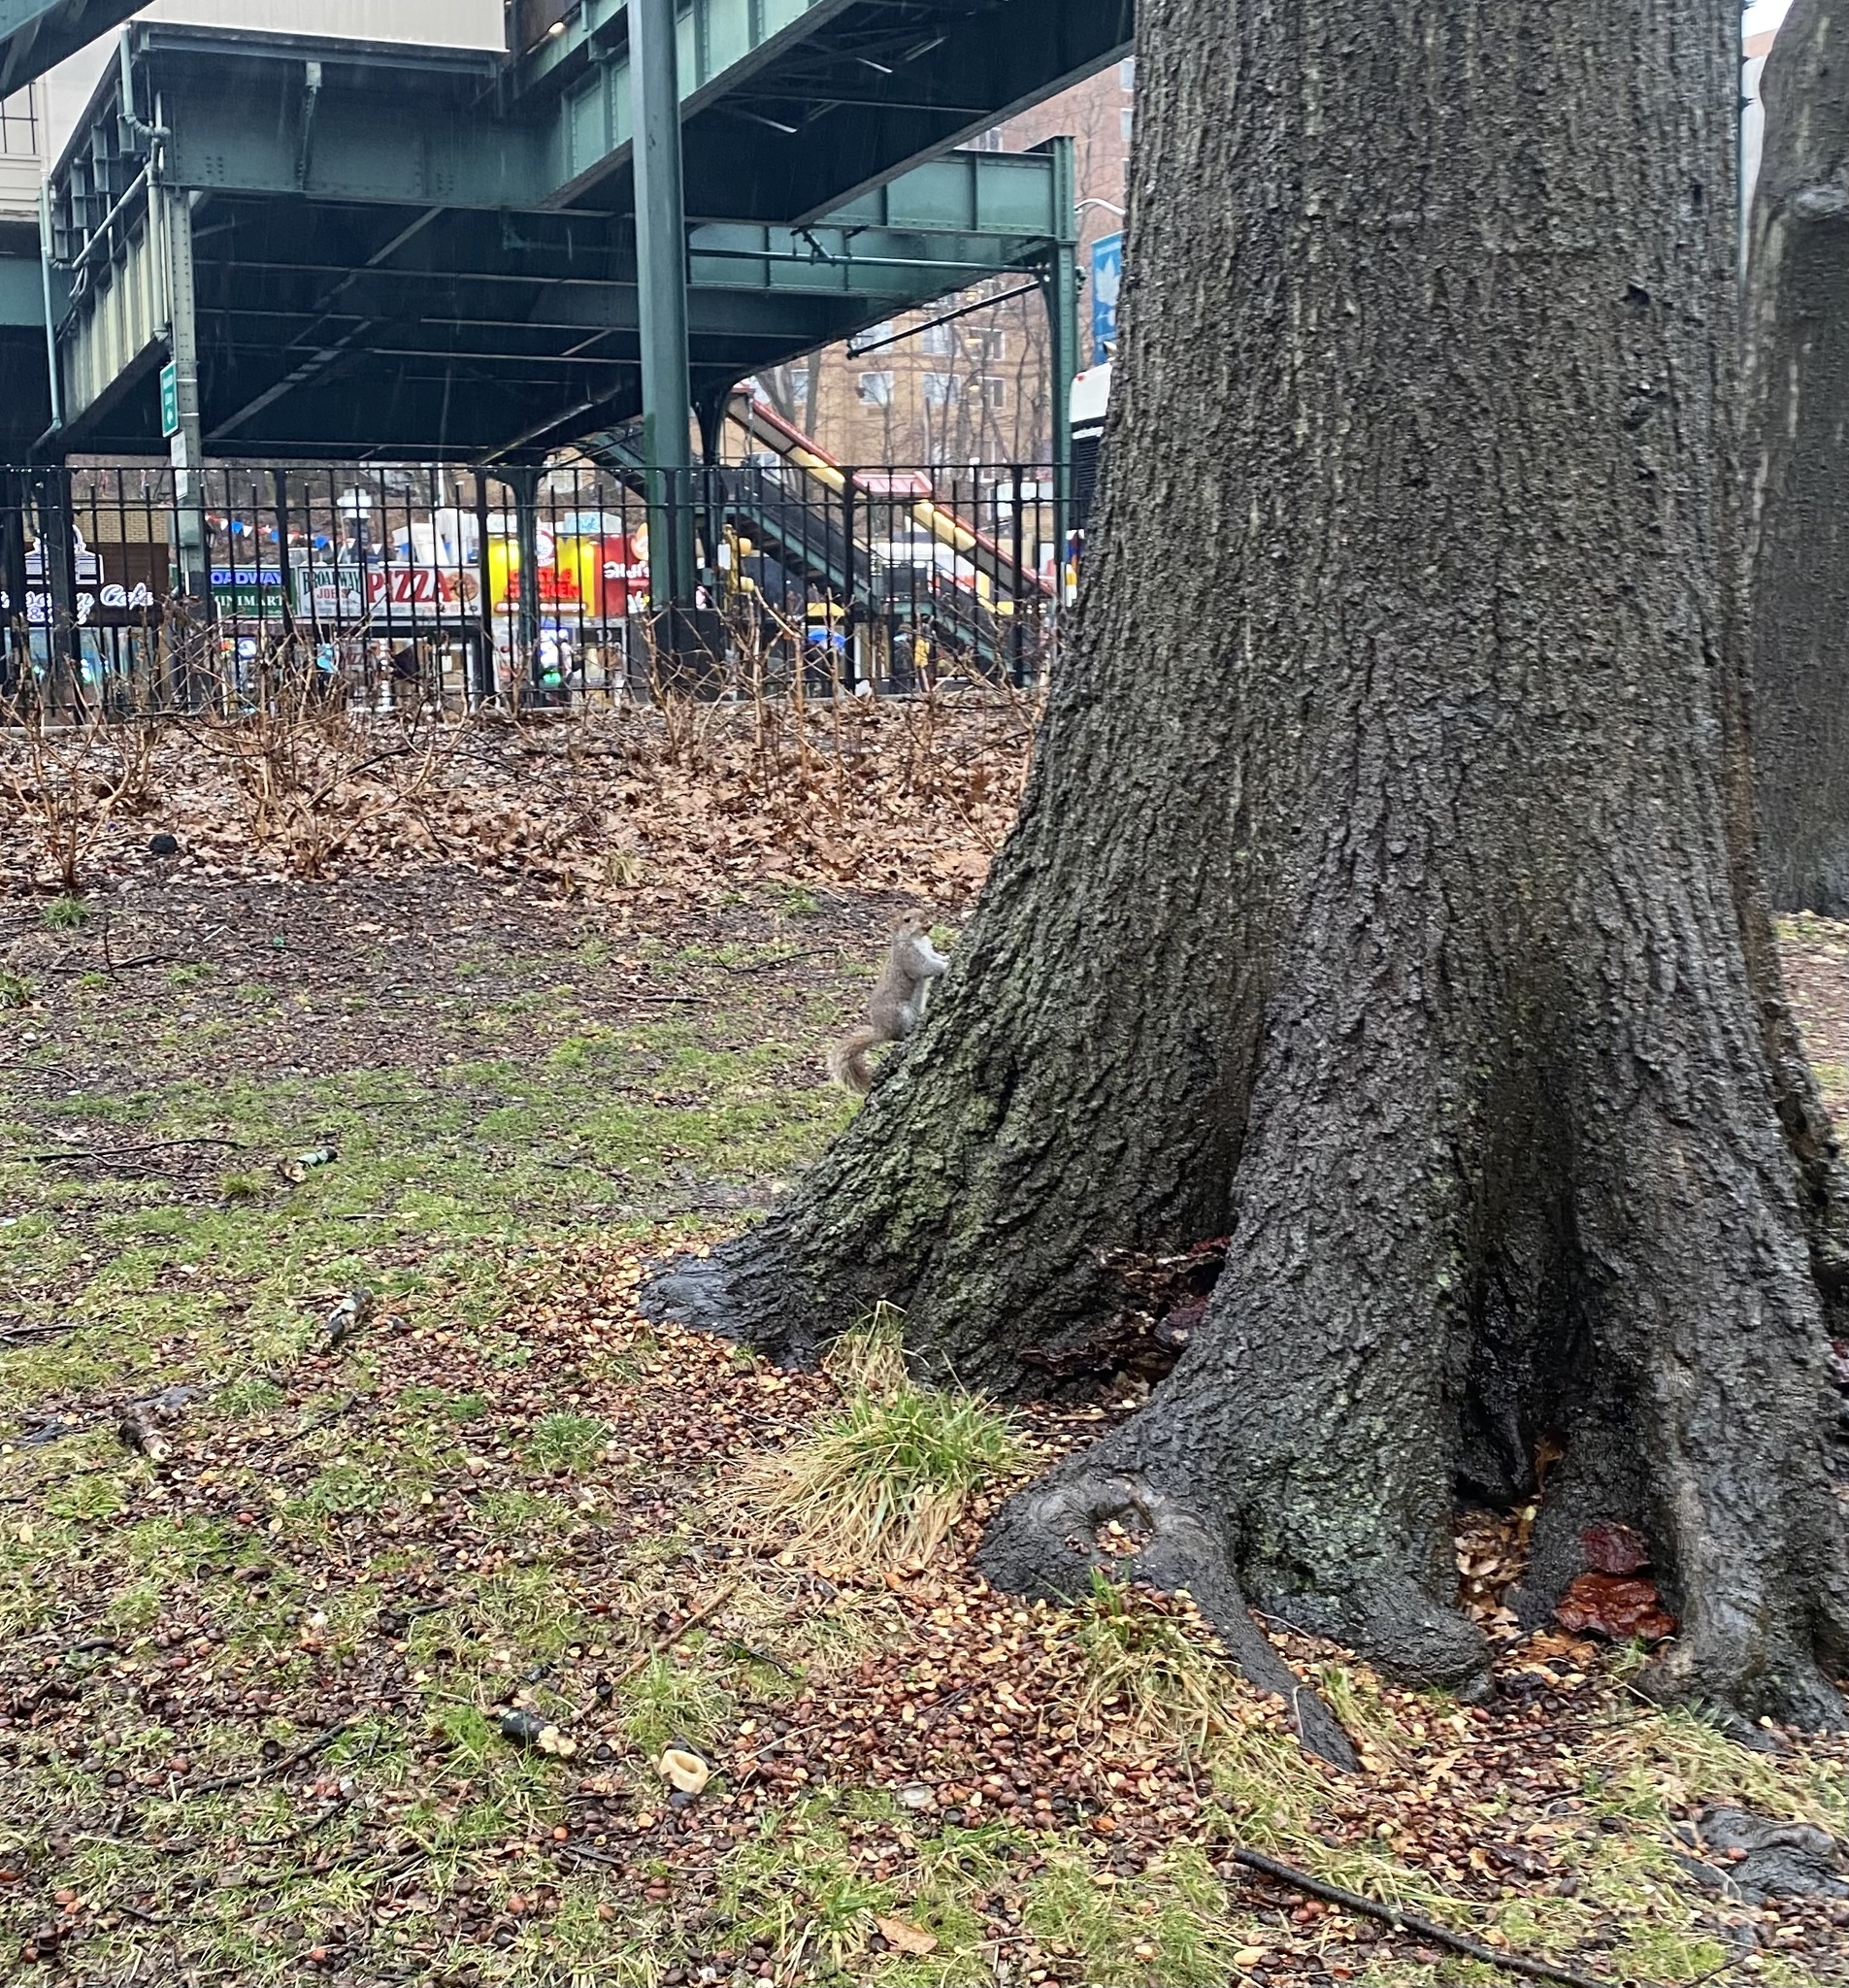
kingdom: Animalia
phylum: Chordata
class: Mammalia
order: Rodentia
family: Sciuridae
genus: Sciurus
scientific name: Sciurus carolinensis
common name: Eastern gray squirrel
